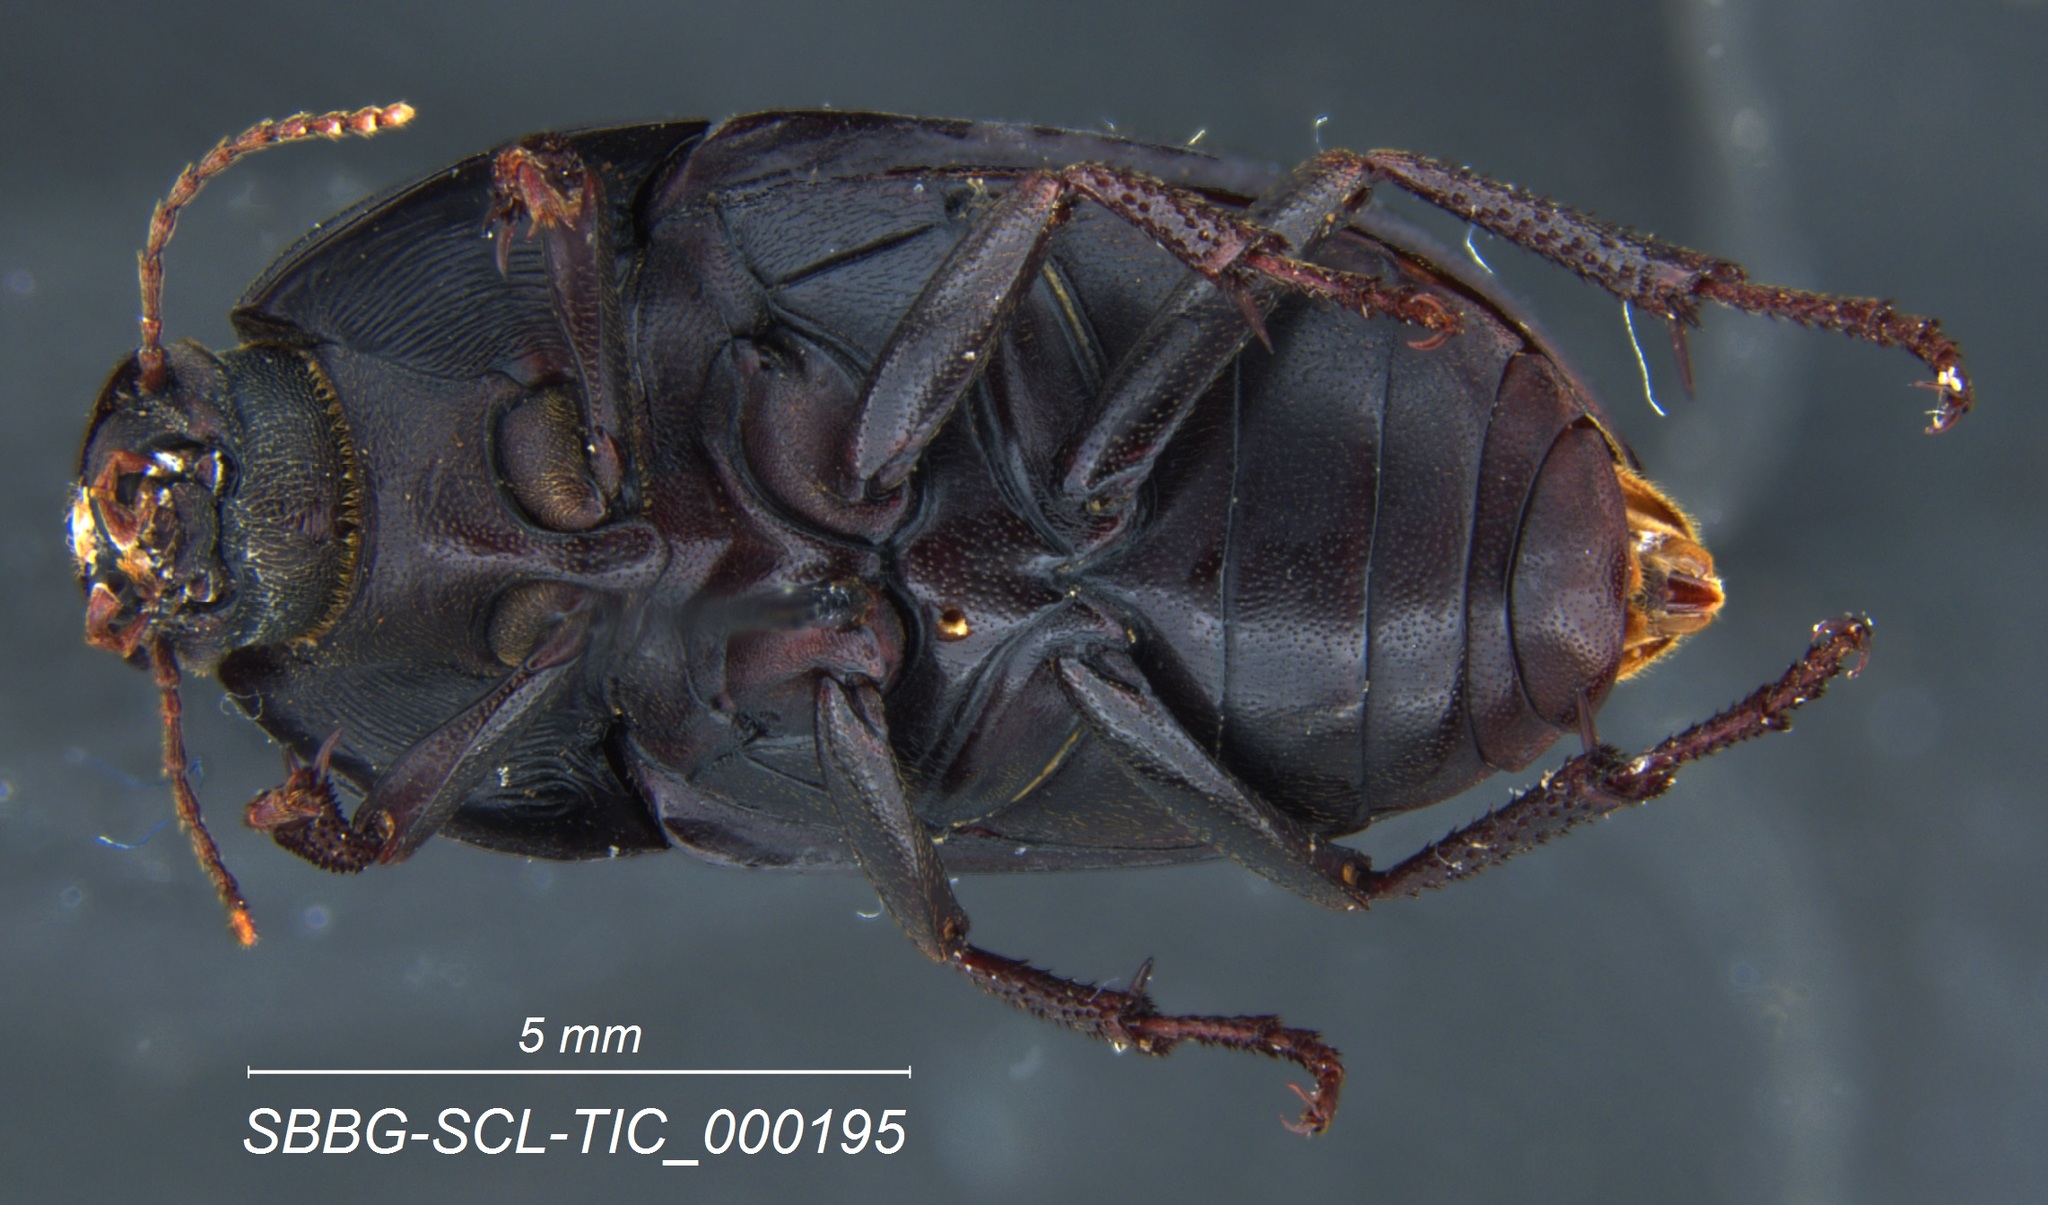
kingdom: Animalia
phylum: Arthropoda
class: Insecta
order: Coleoptera
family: Tenebrionidae
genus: Coniontis
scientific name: Coniontis
